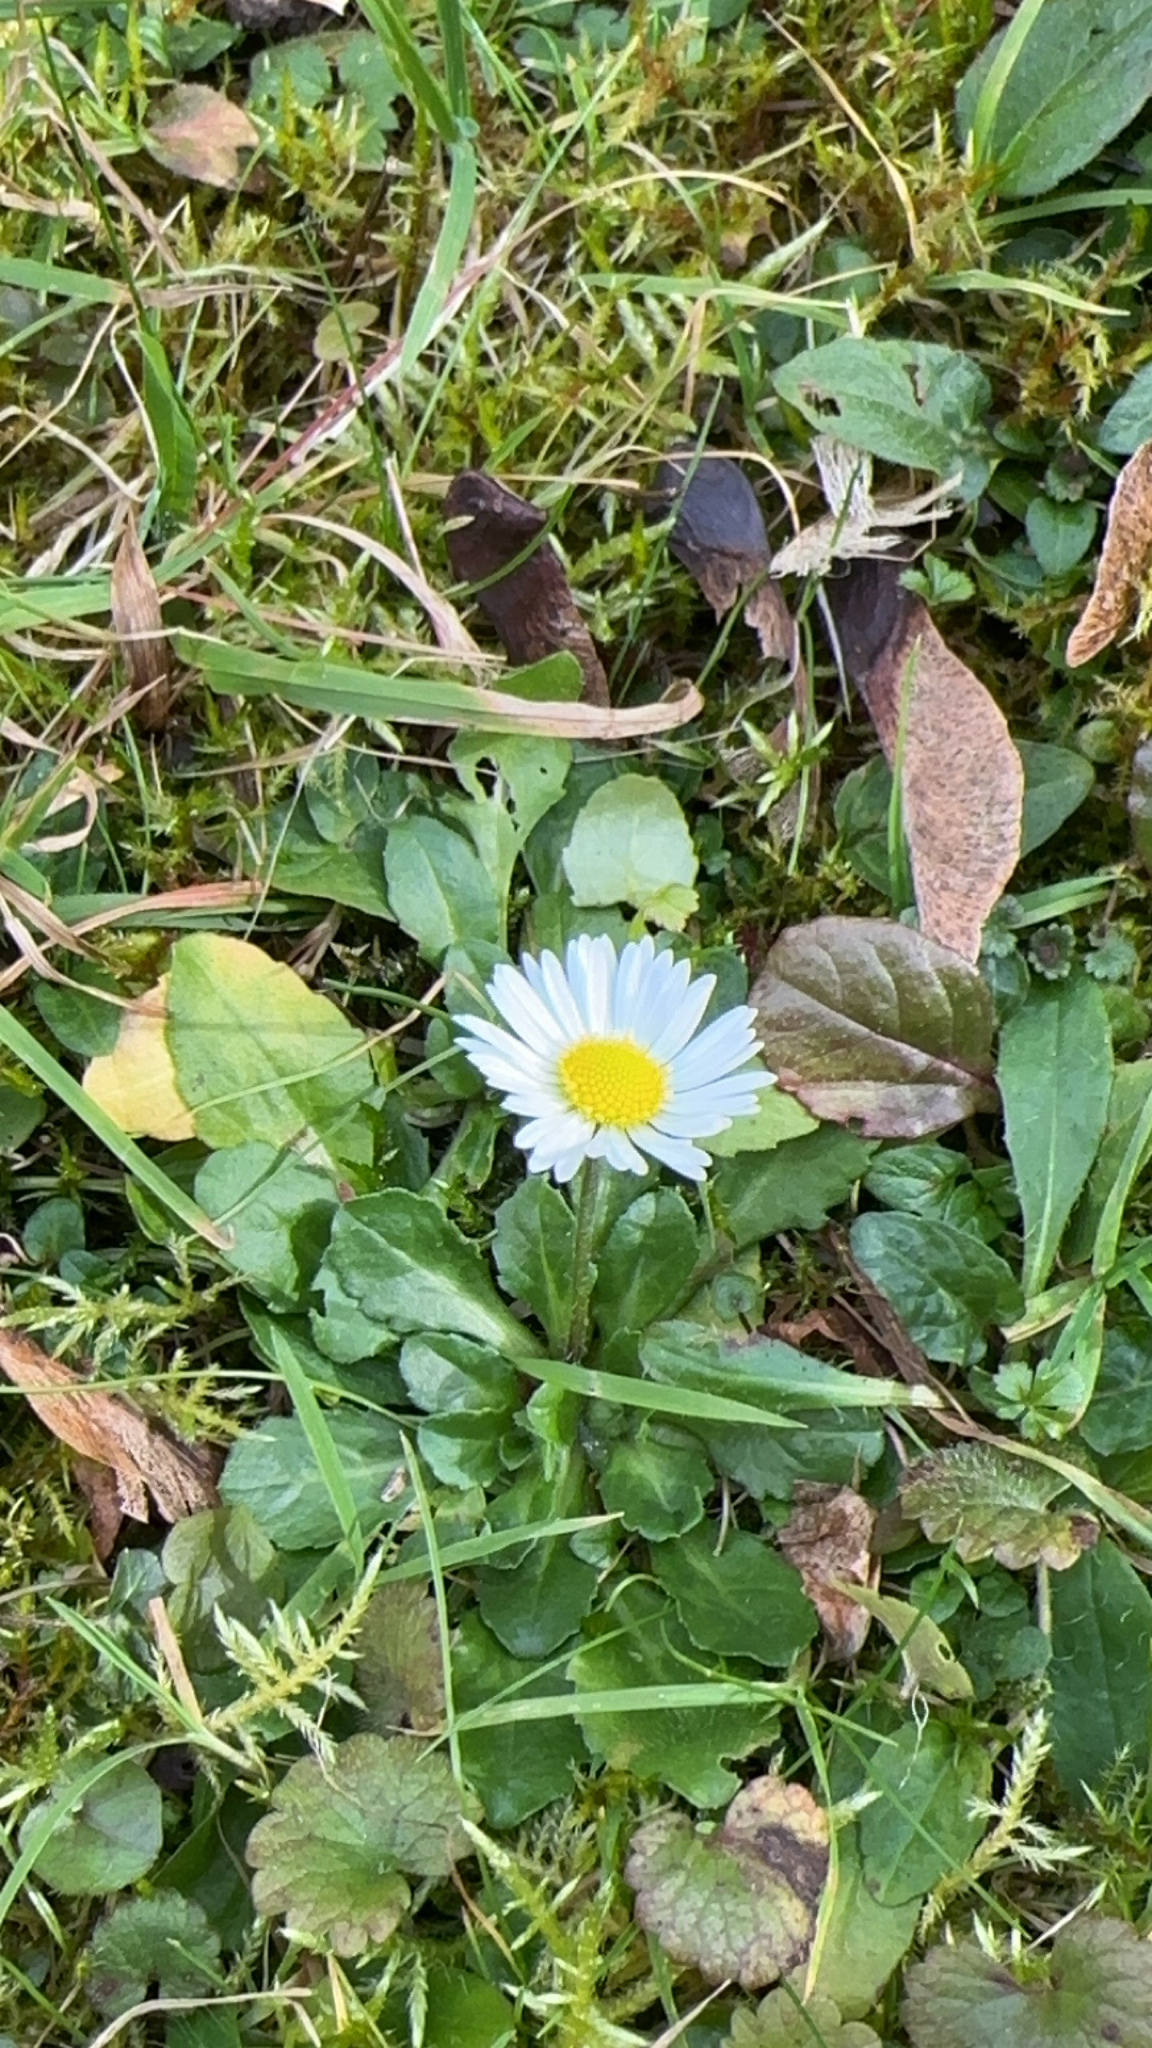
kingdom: Plantae
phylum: Tracheophyta
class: Magnoliopsida
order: Asterales
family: Asteraceae
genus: Bellis
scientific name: Bellis perennis
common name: Lawndaisy
